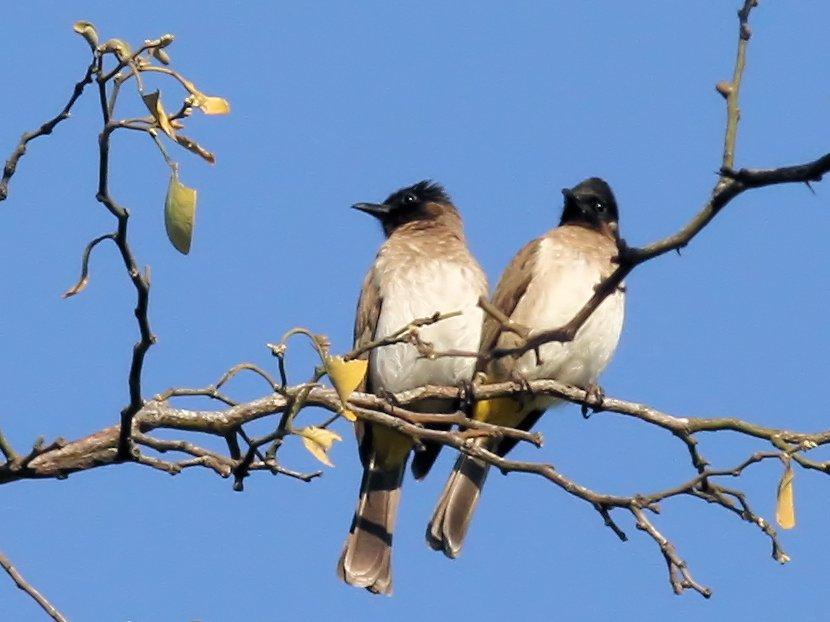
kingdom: Animalia
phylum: Chordata
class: Aves
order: Passeriformes
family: Pycnonotidae
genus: Pycnonotus
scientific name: Pycnonotus barbatus
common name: Common bulbul
